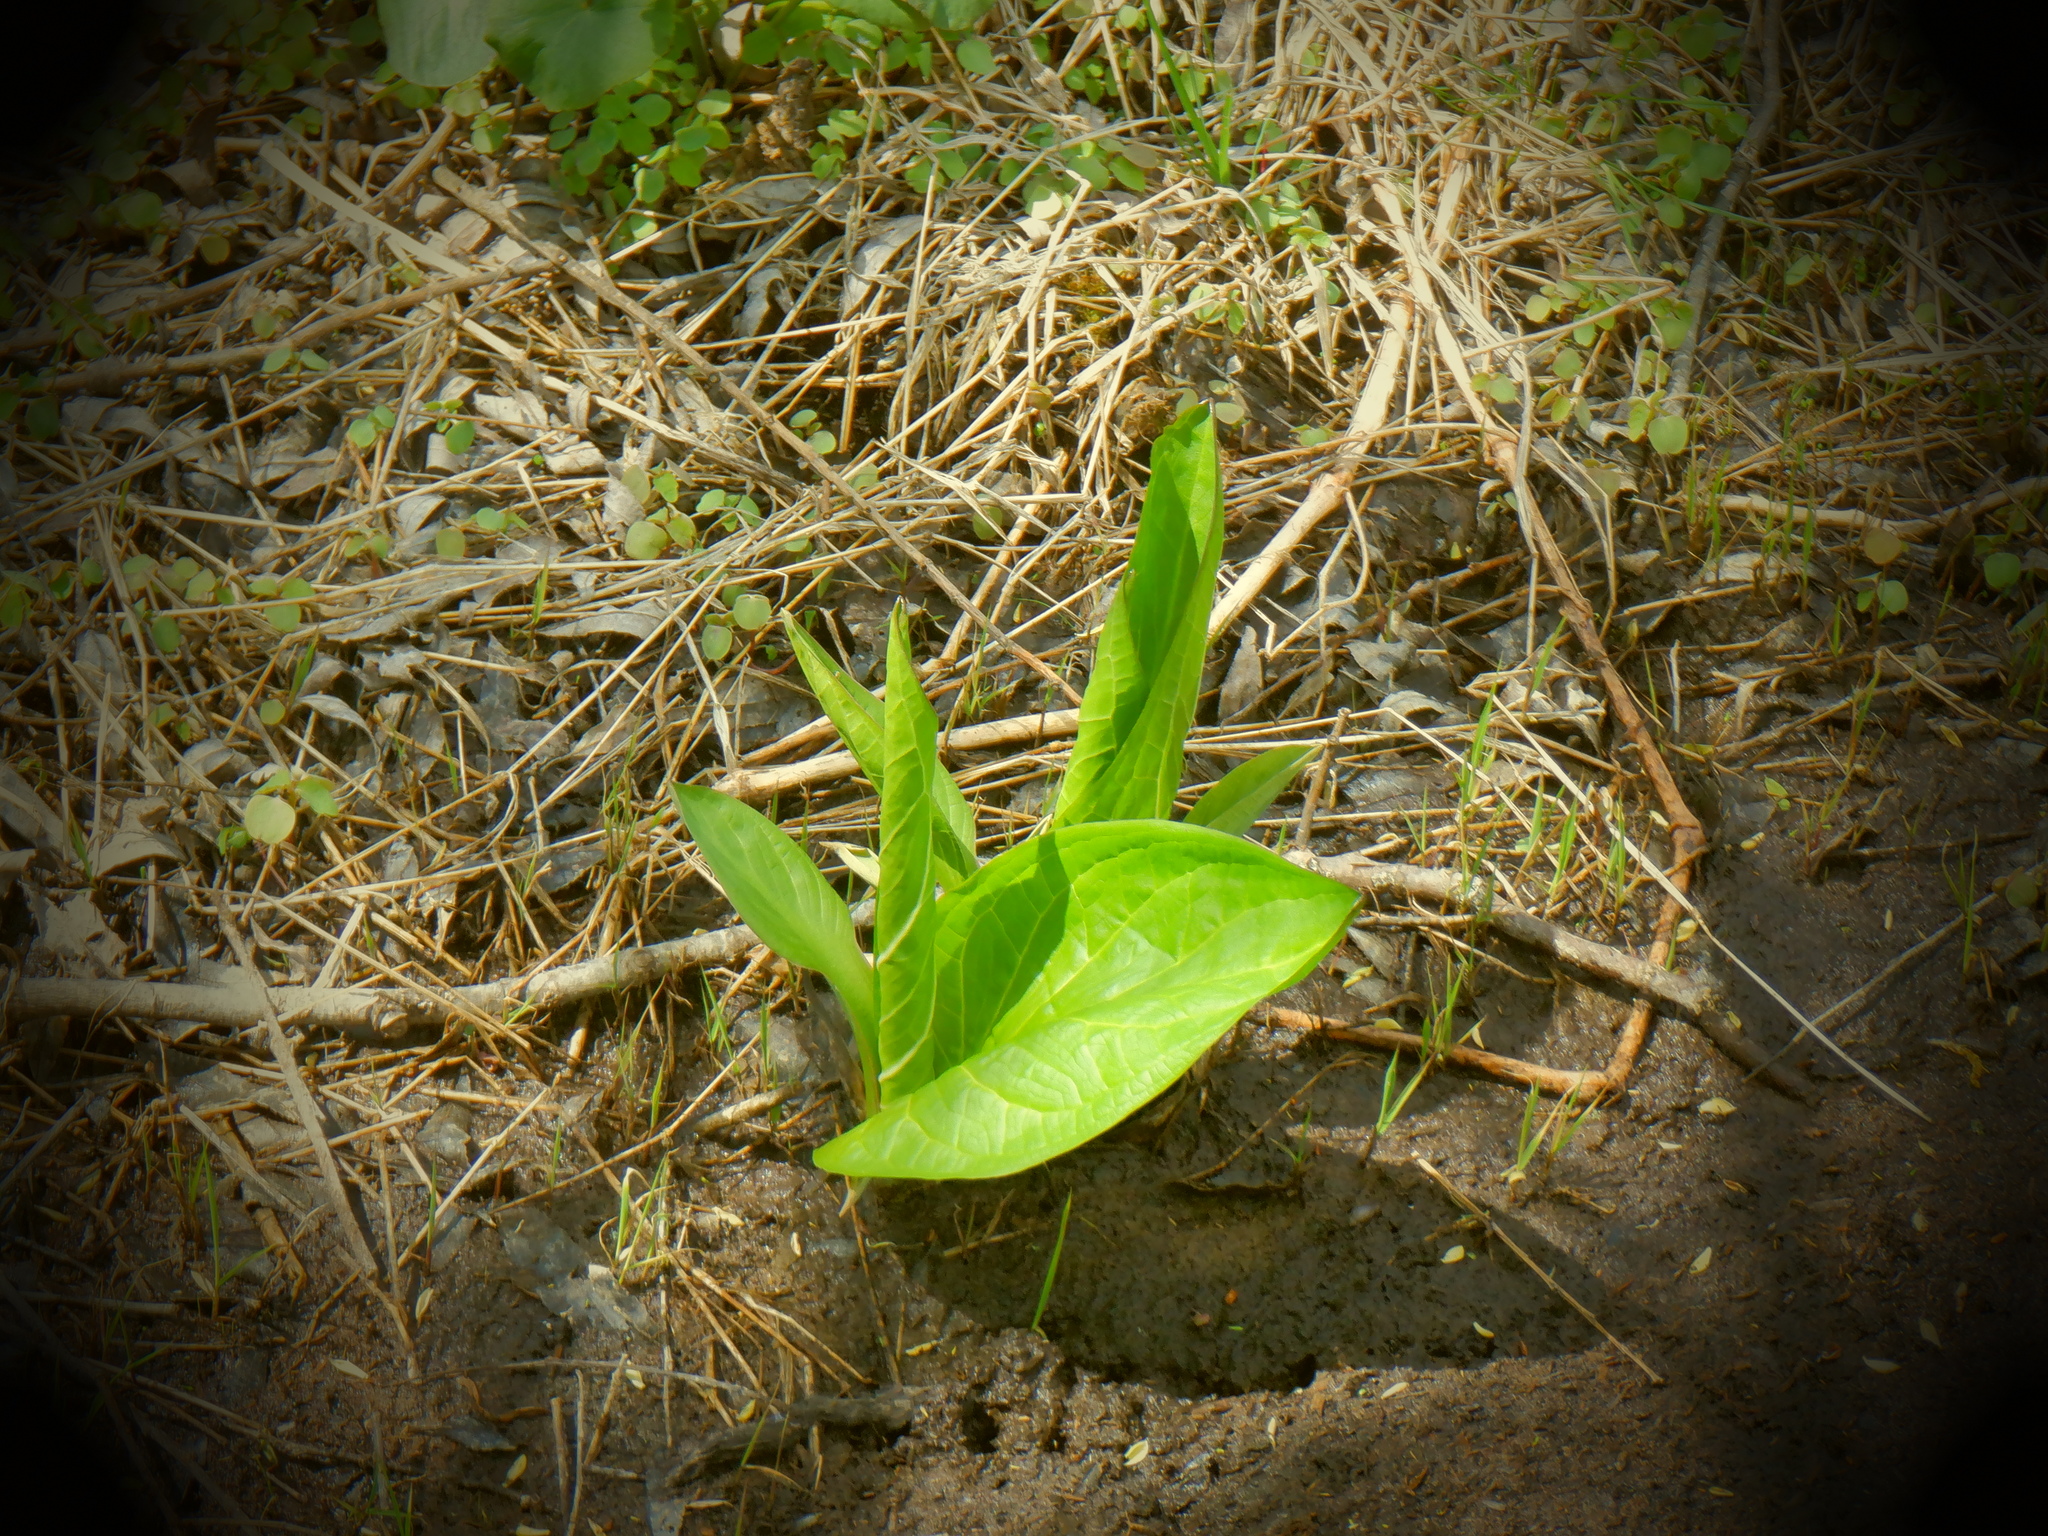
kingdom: Plantae
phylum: Tracheophyta
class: Liliopsida
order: Alismatales
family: Araceae
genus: Symplocarpus
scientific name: Symplocarpus foetidus
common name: Eastern skunk cabbage
